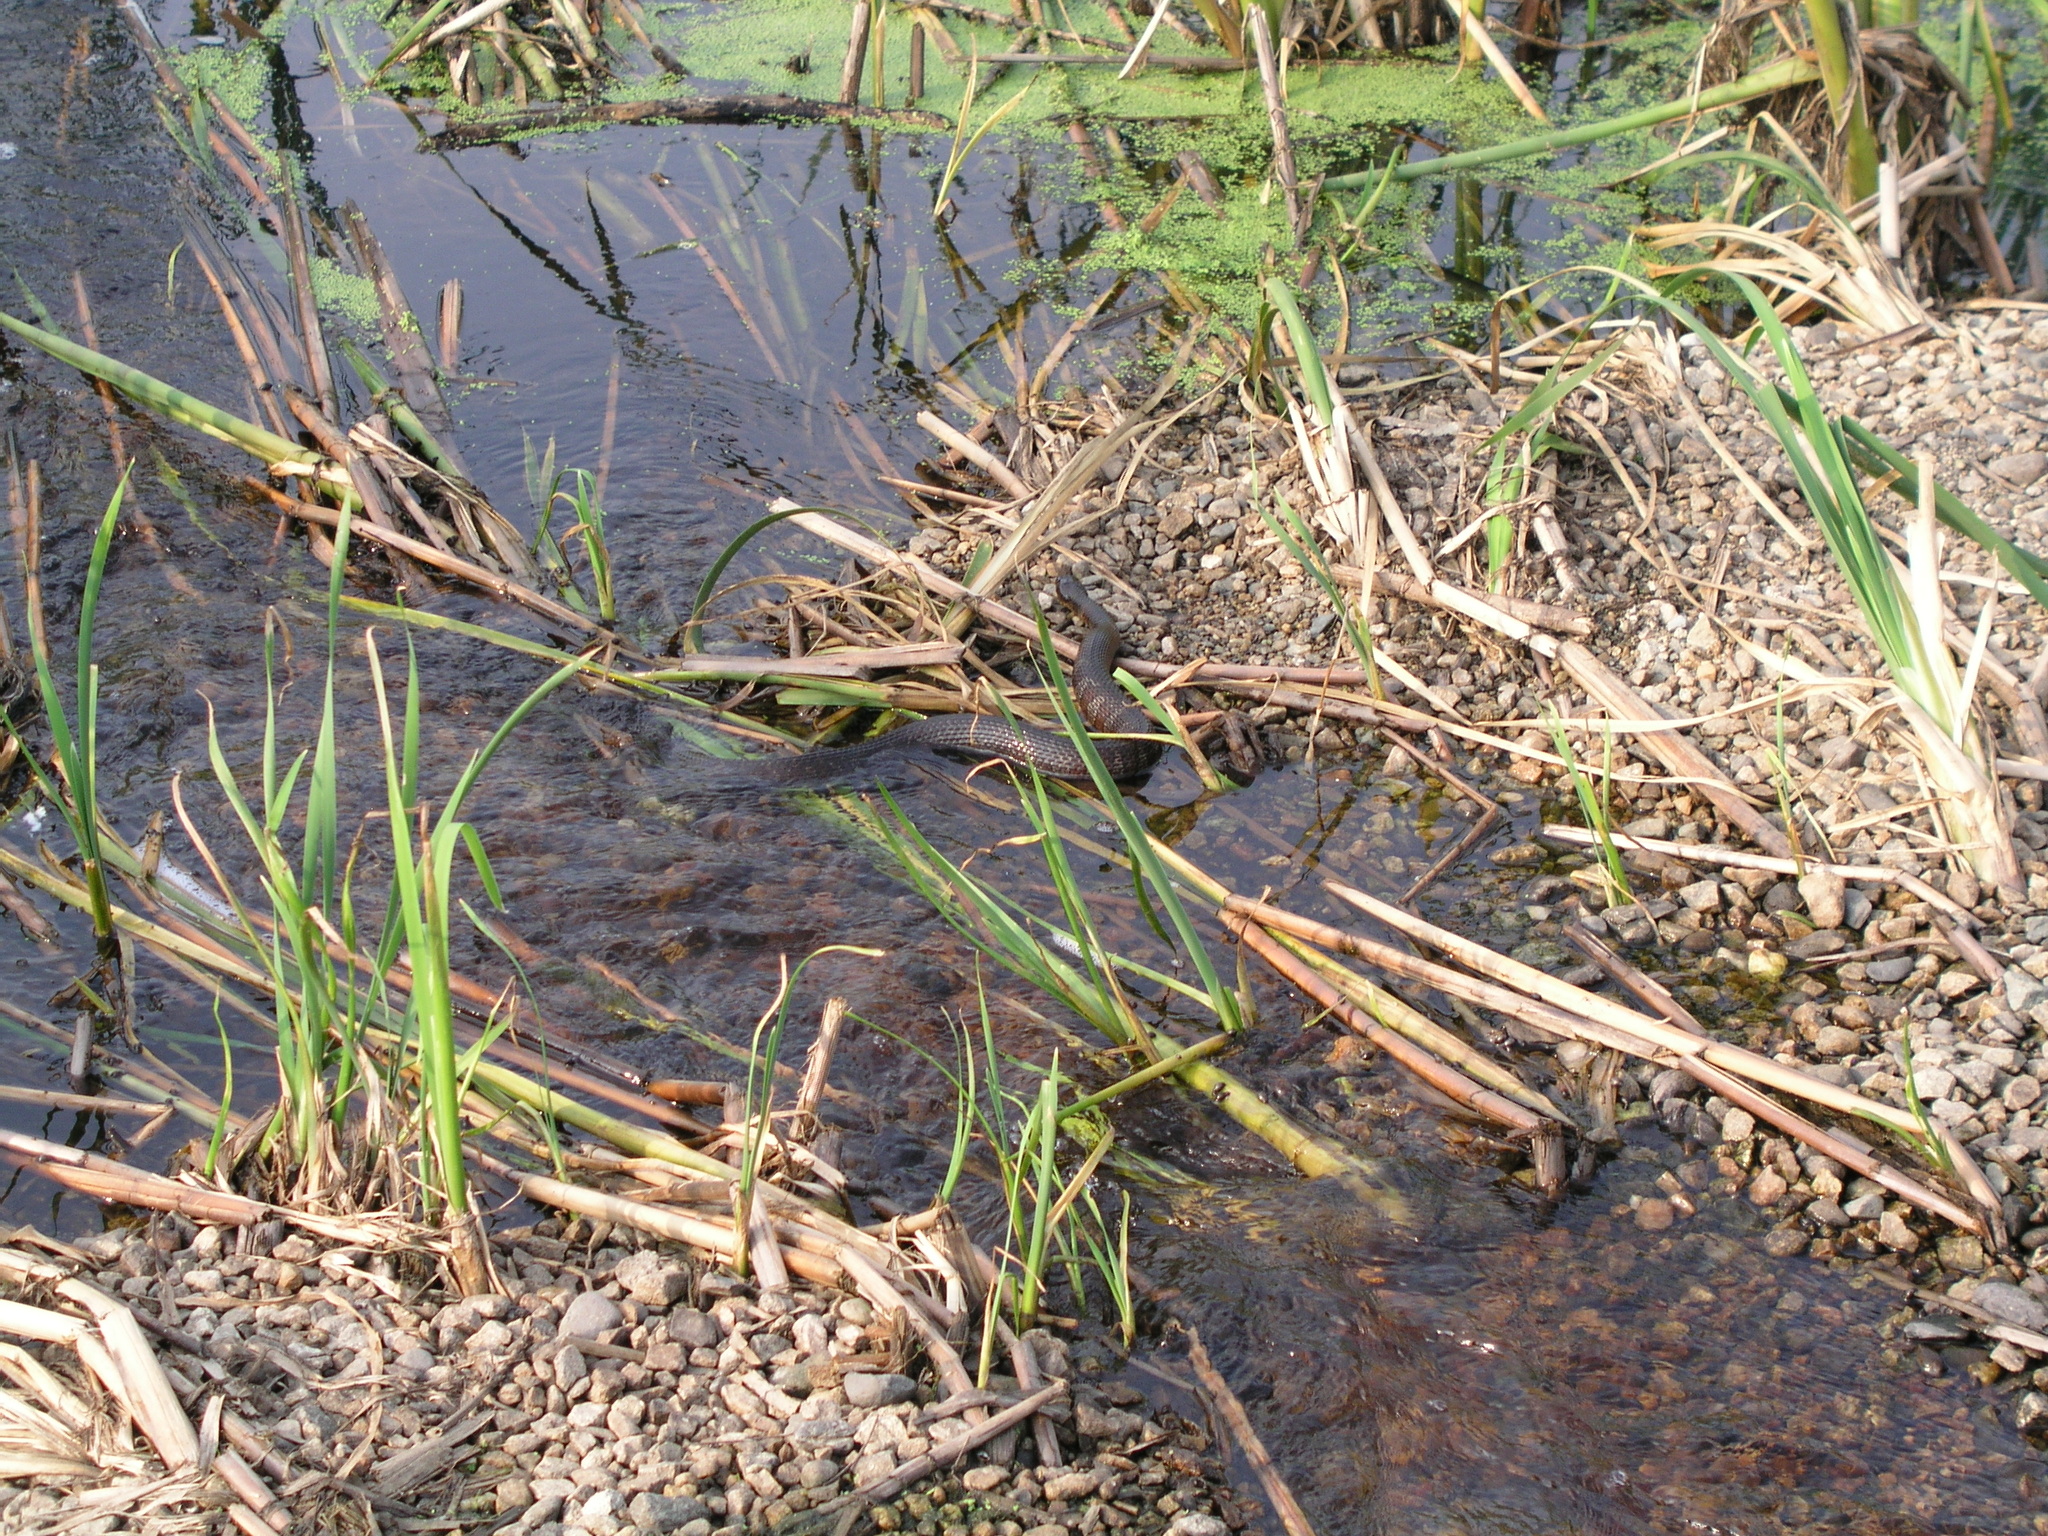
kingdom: Animalia
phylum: Chordata
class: Squamata
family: Colubridae
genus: Nerodia
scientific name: Nerodia sipedon
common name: Northern water snake
